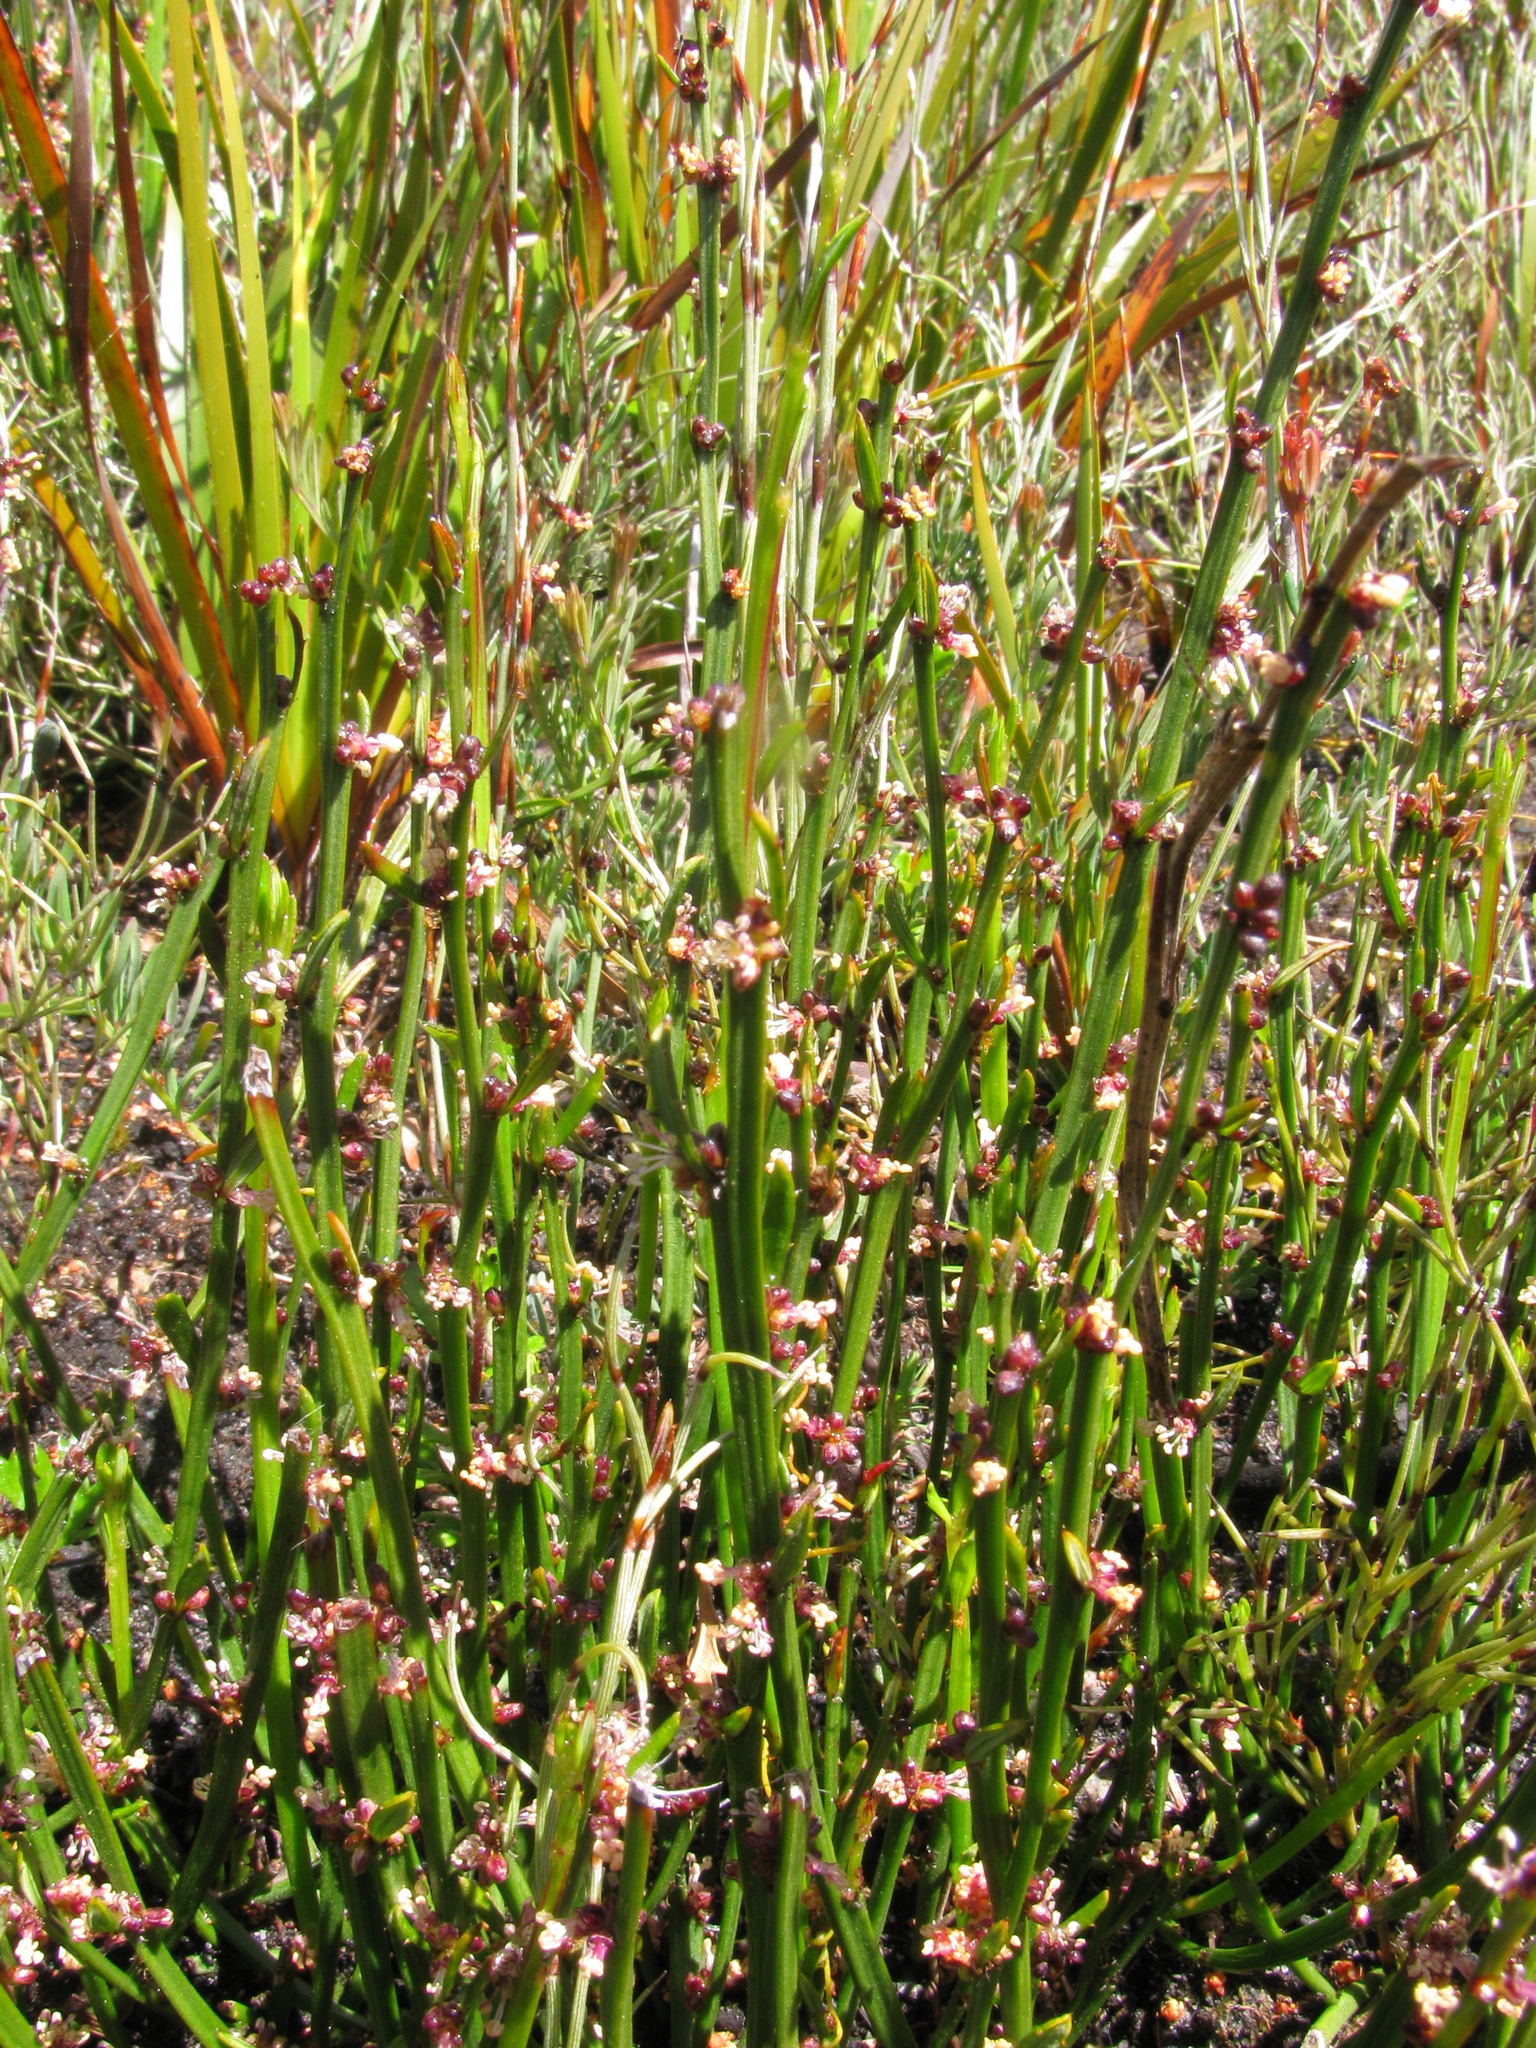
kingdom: Plantae
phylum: Tracheophyta
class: Magnoliopsida
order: Malpighiales
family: Euphorbiaceae
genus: Amperea
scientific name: Amperea xiphoclada
